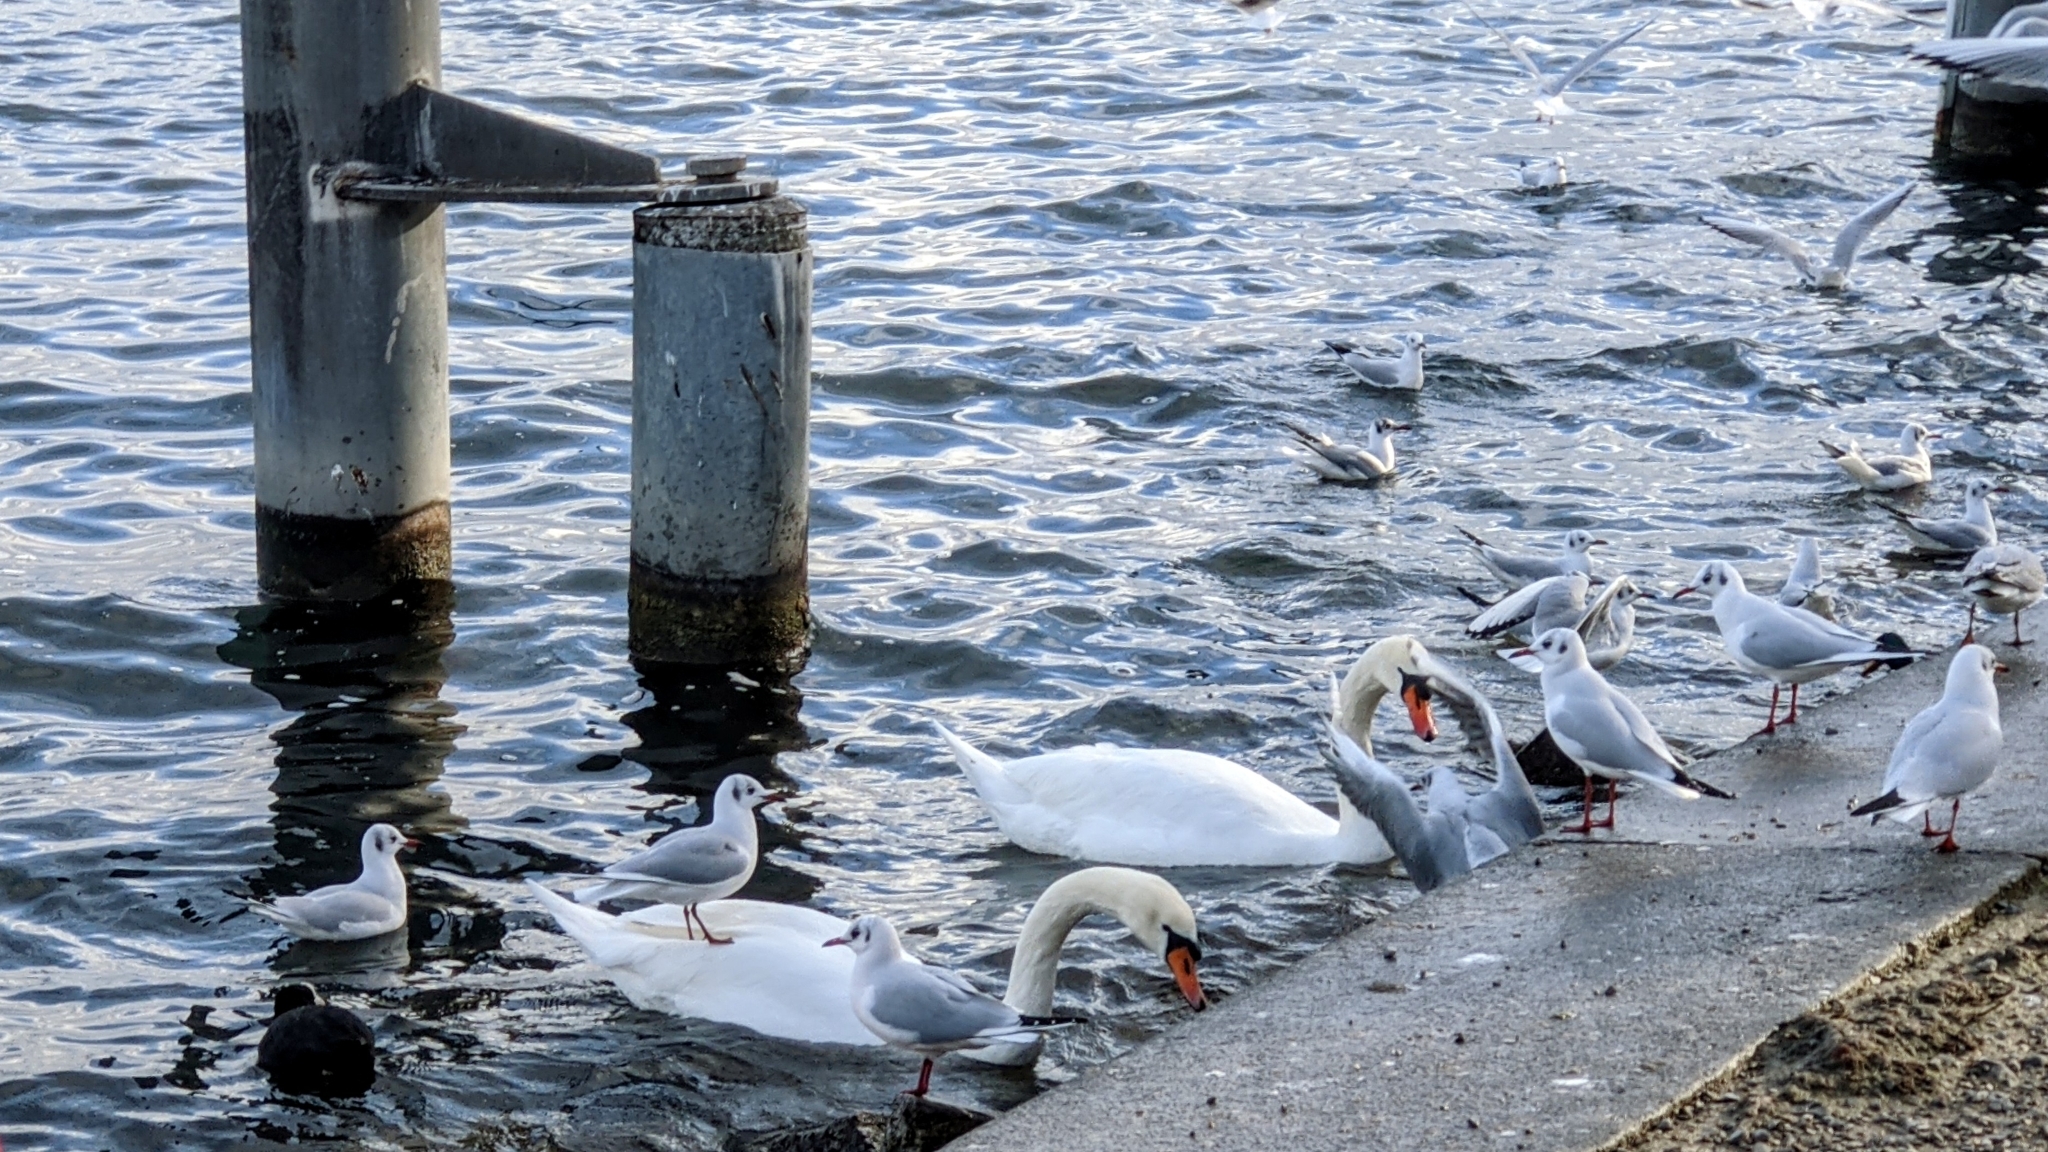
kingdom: Animalia
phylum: Chordata
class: Aves
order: Charadriiformes
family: Laridae
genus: Chroicocephalus
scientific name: Chroicocephalus ridibundus
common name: Black-headed gull
